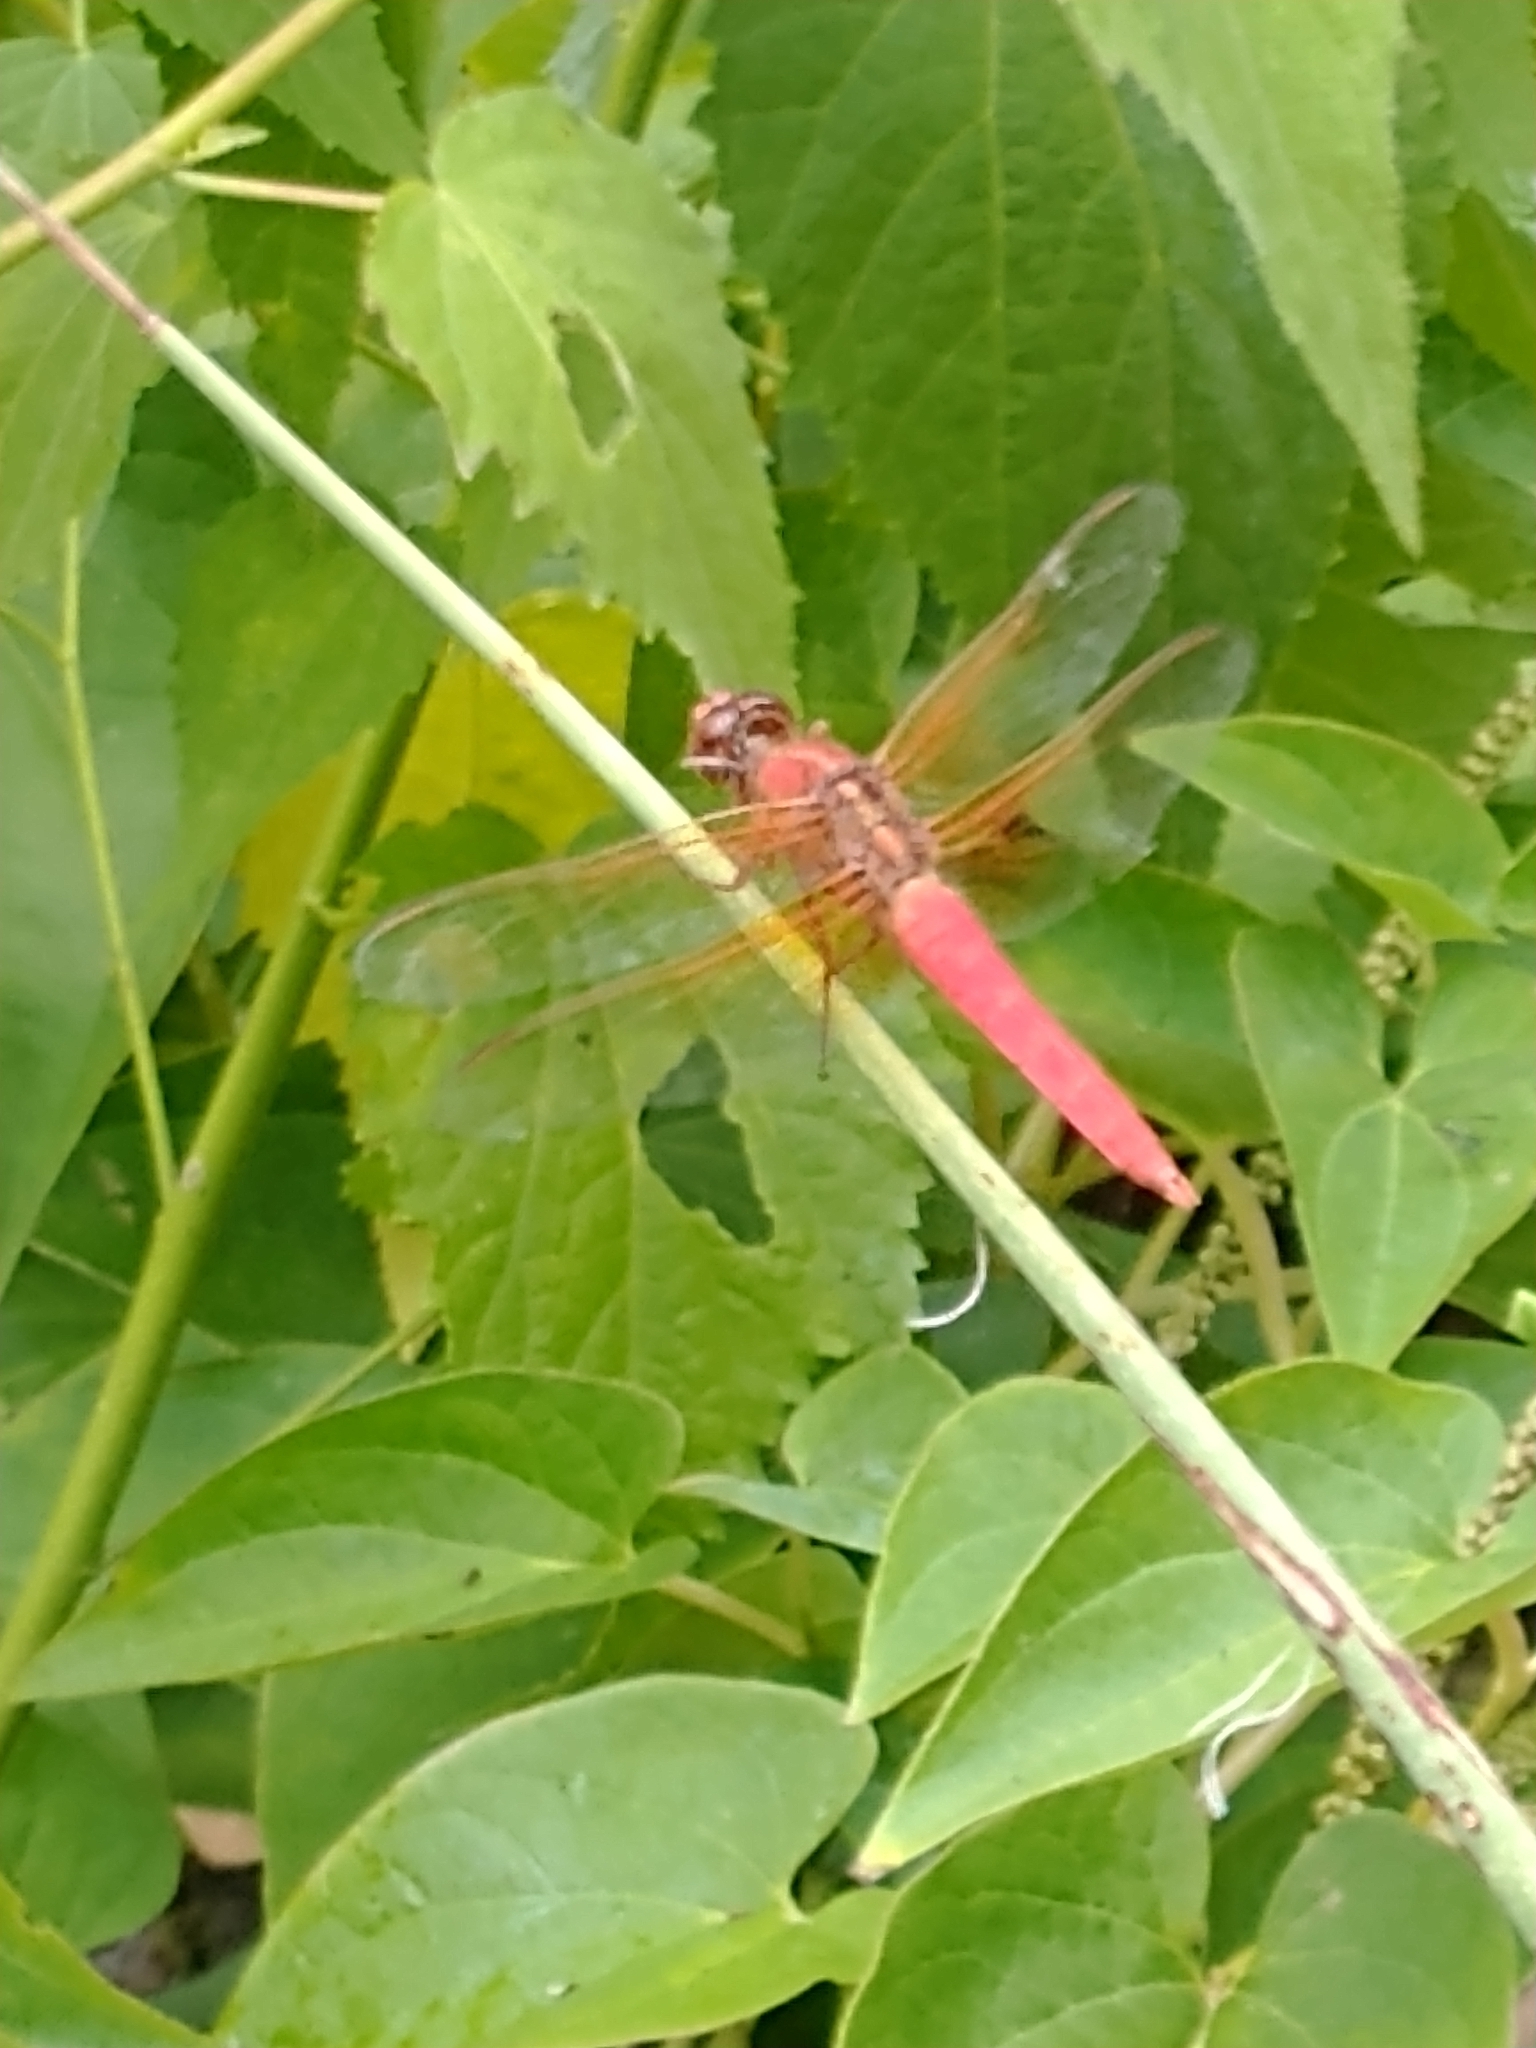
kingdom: Animalia
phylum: Arthropoda
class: Insecta
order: Odonata
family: Libellulidae
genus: Libellula
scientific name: Libellula croceipennis
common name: Neon skimmer
